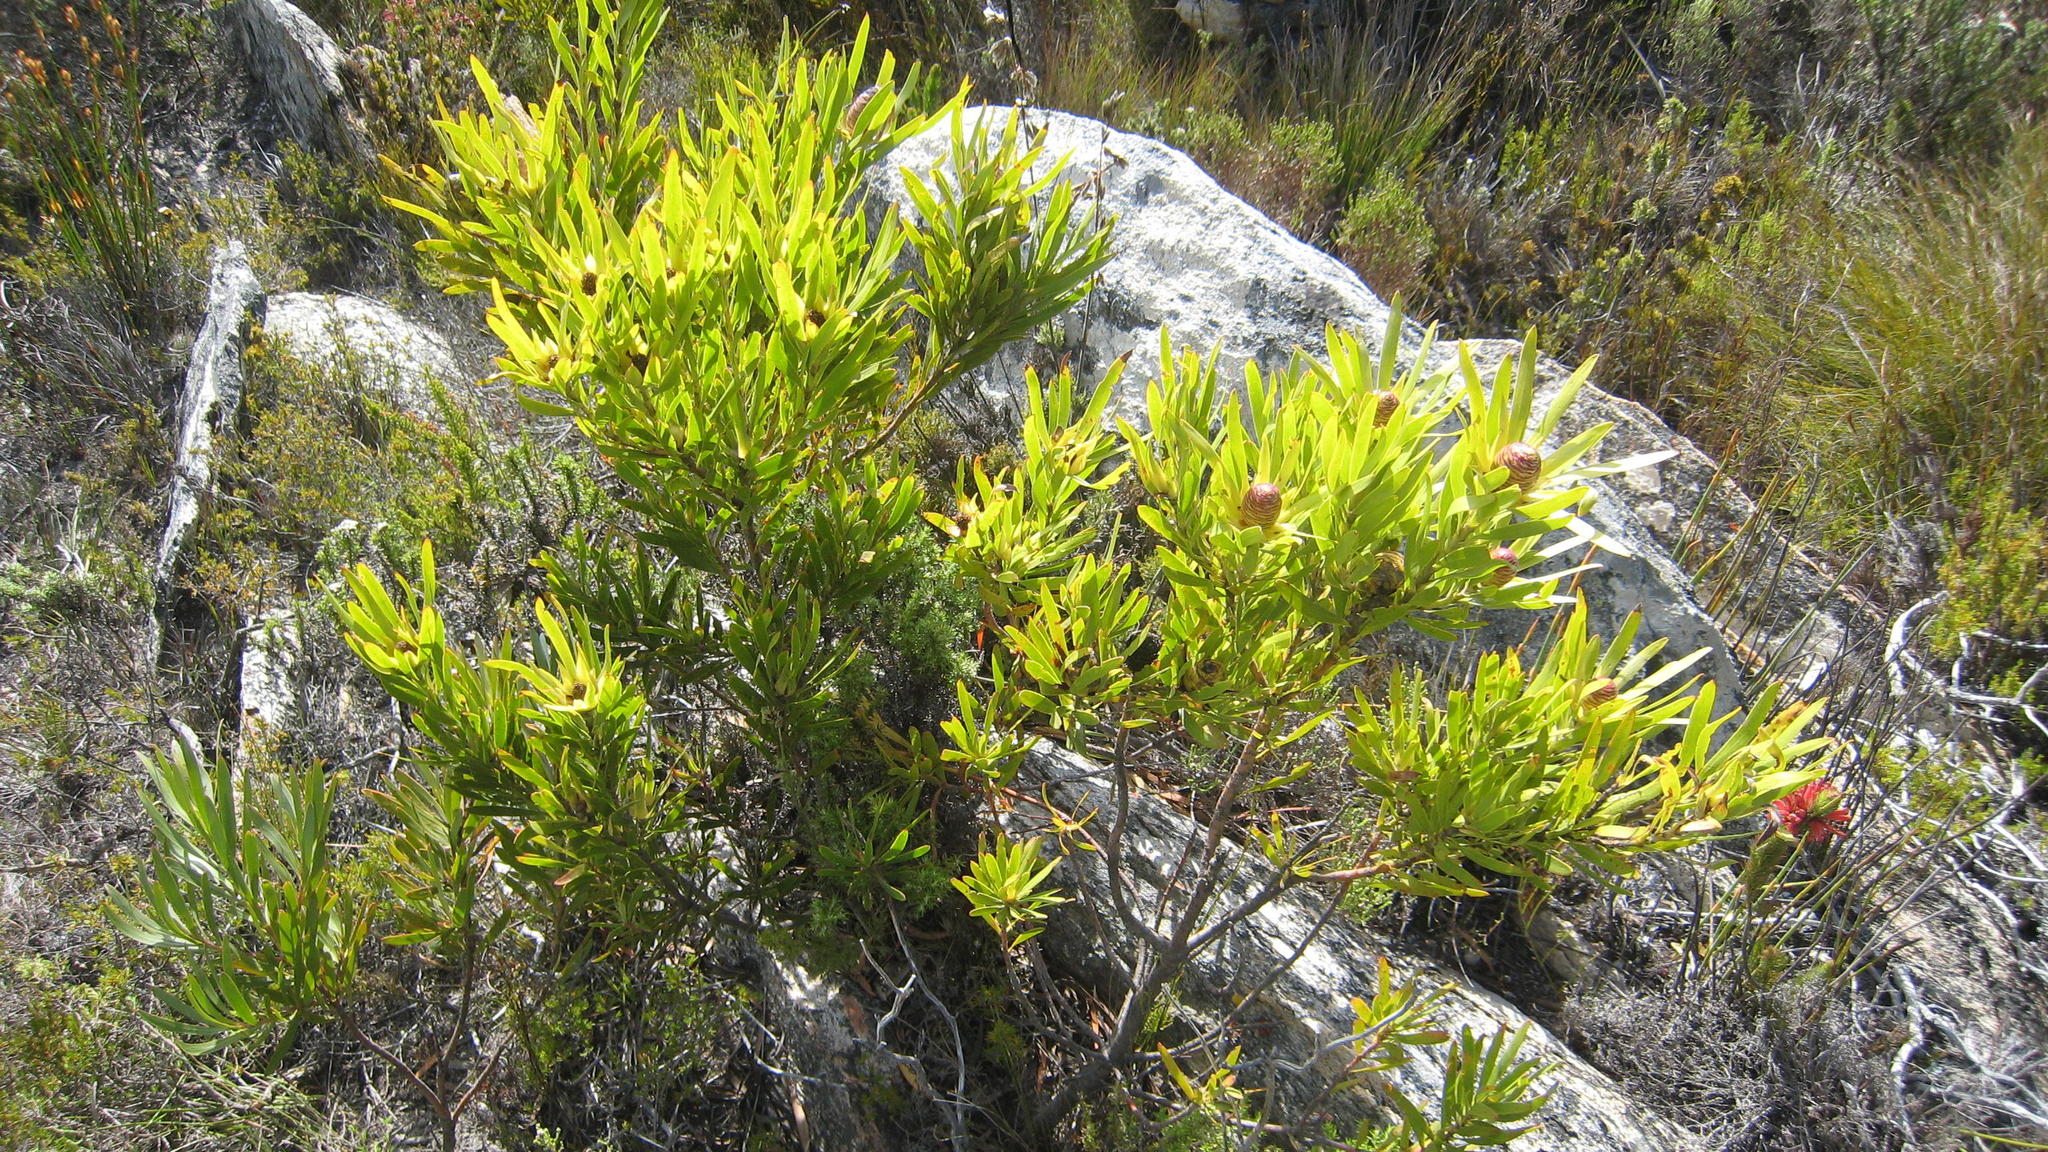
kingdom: Plantae
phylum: Tracheophyta
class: Magnoliopsida
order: Proteales
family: Proteaceae
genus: Leucadendron
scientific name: Leucadendron eucalyptifolium
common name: Gum-leaved conebush
